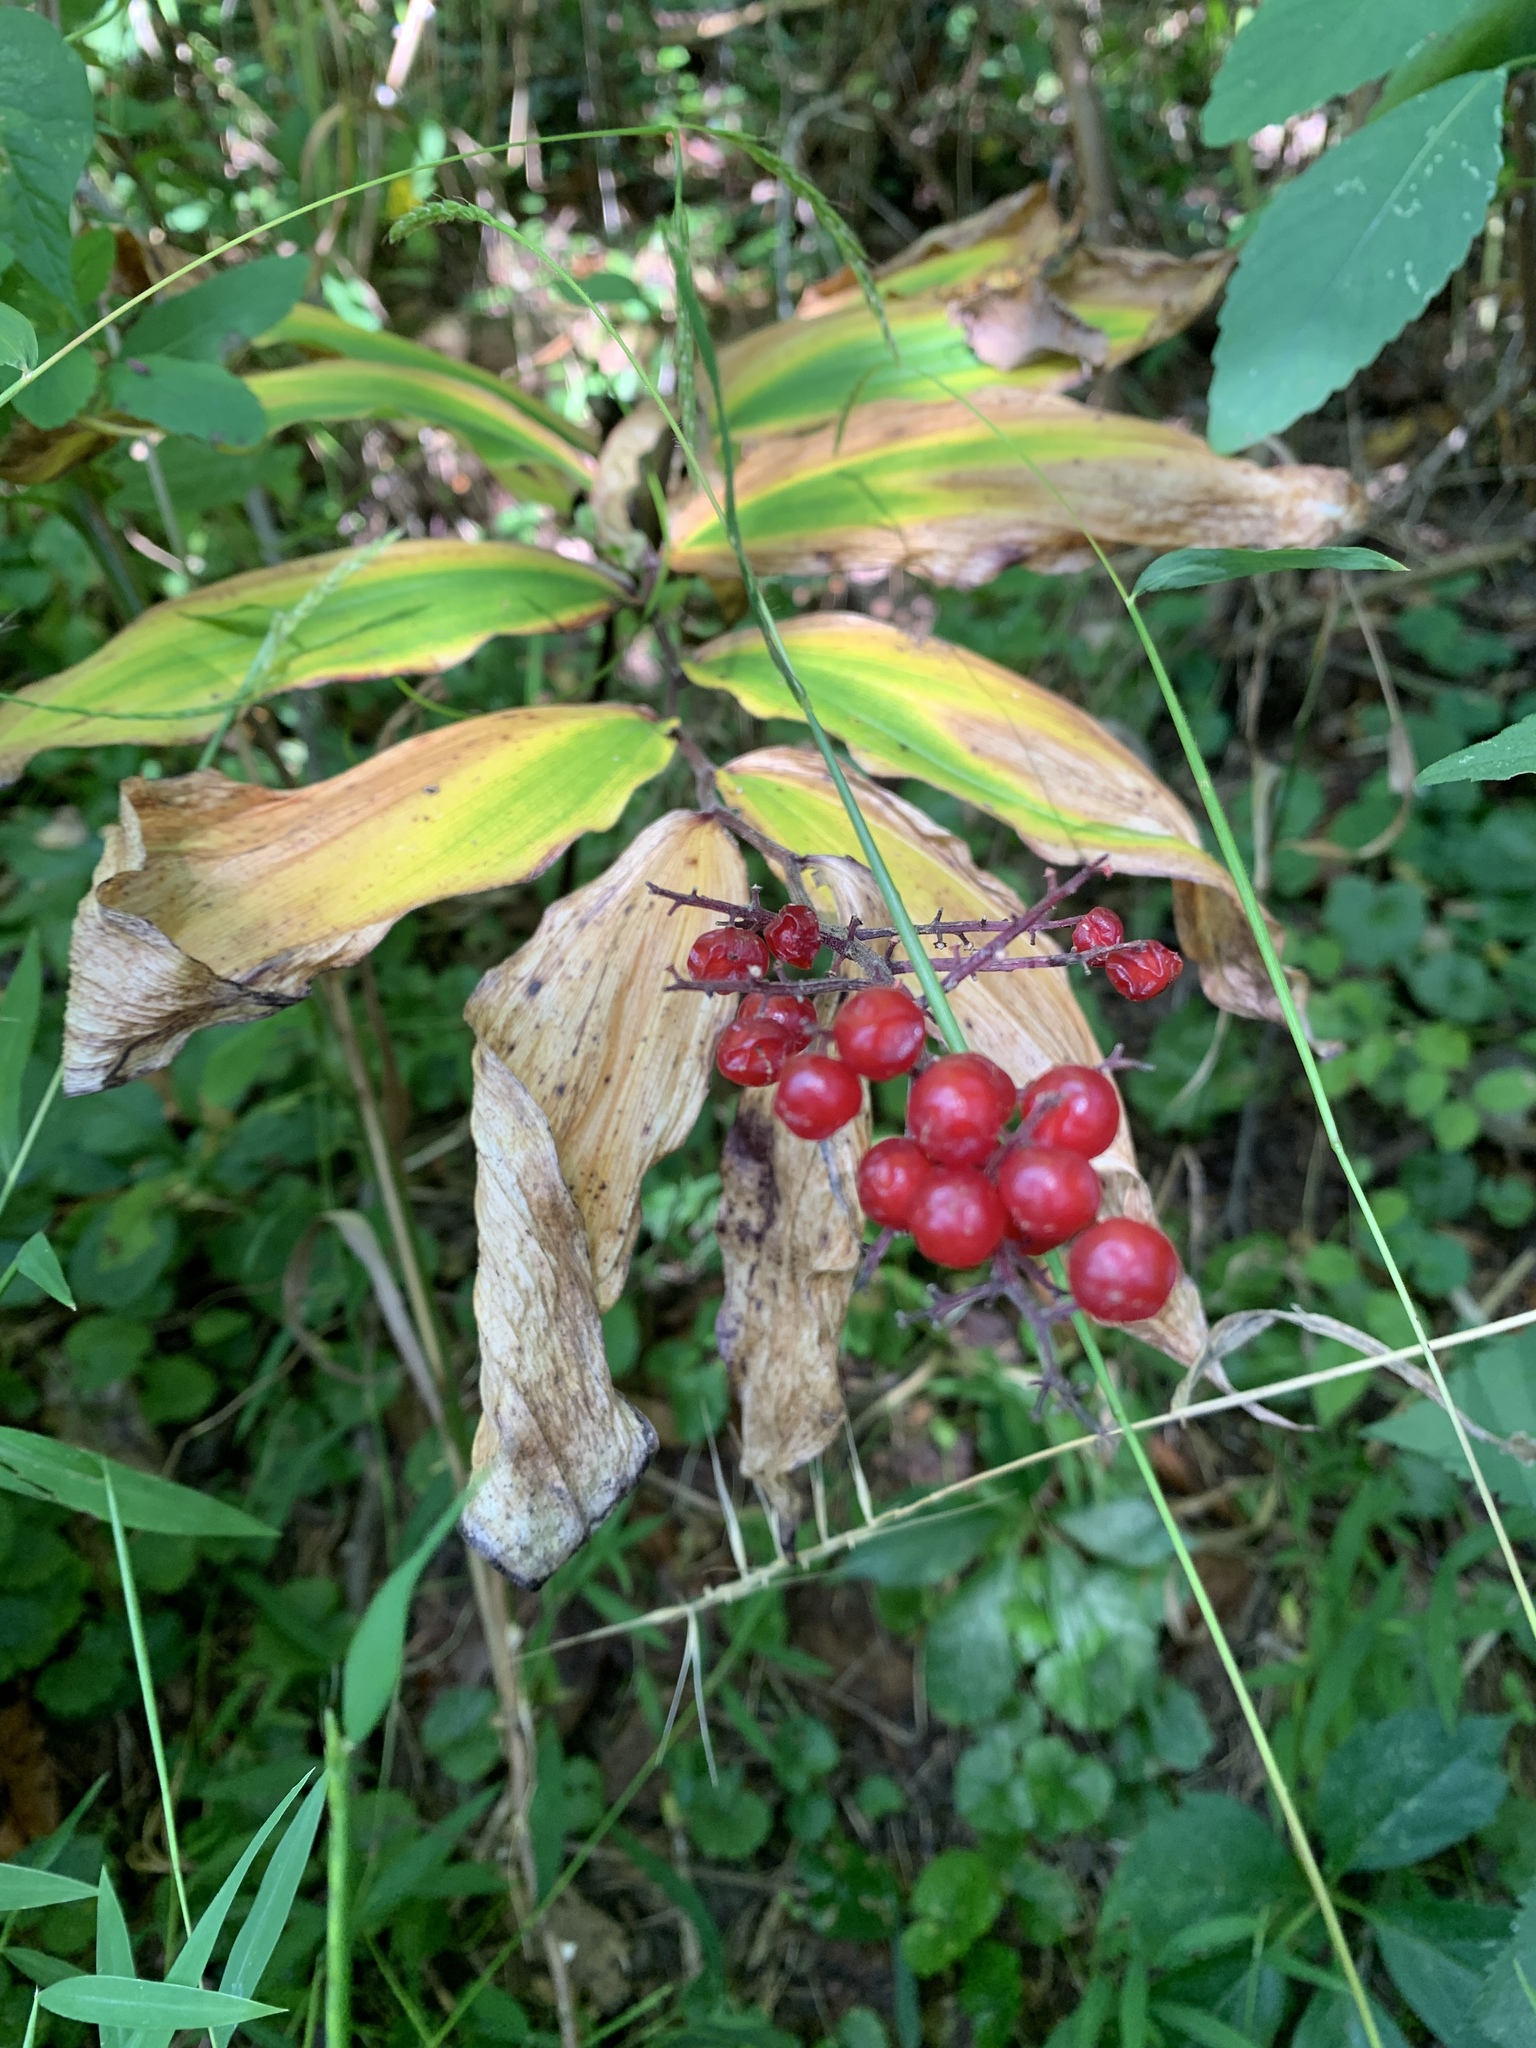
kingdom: Plantae
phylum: Tracheophyta
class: Liliopsida
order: Asparagales
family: Asparagaceae
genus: Maianthemum
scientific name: Maianthemum racemosum
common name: False spikenard
